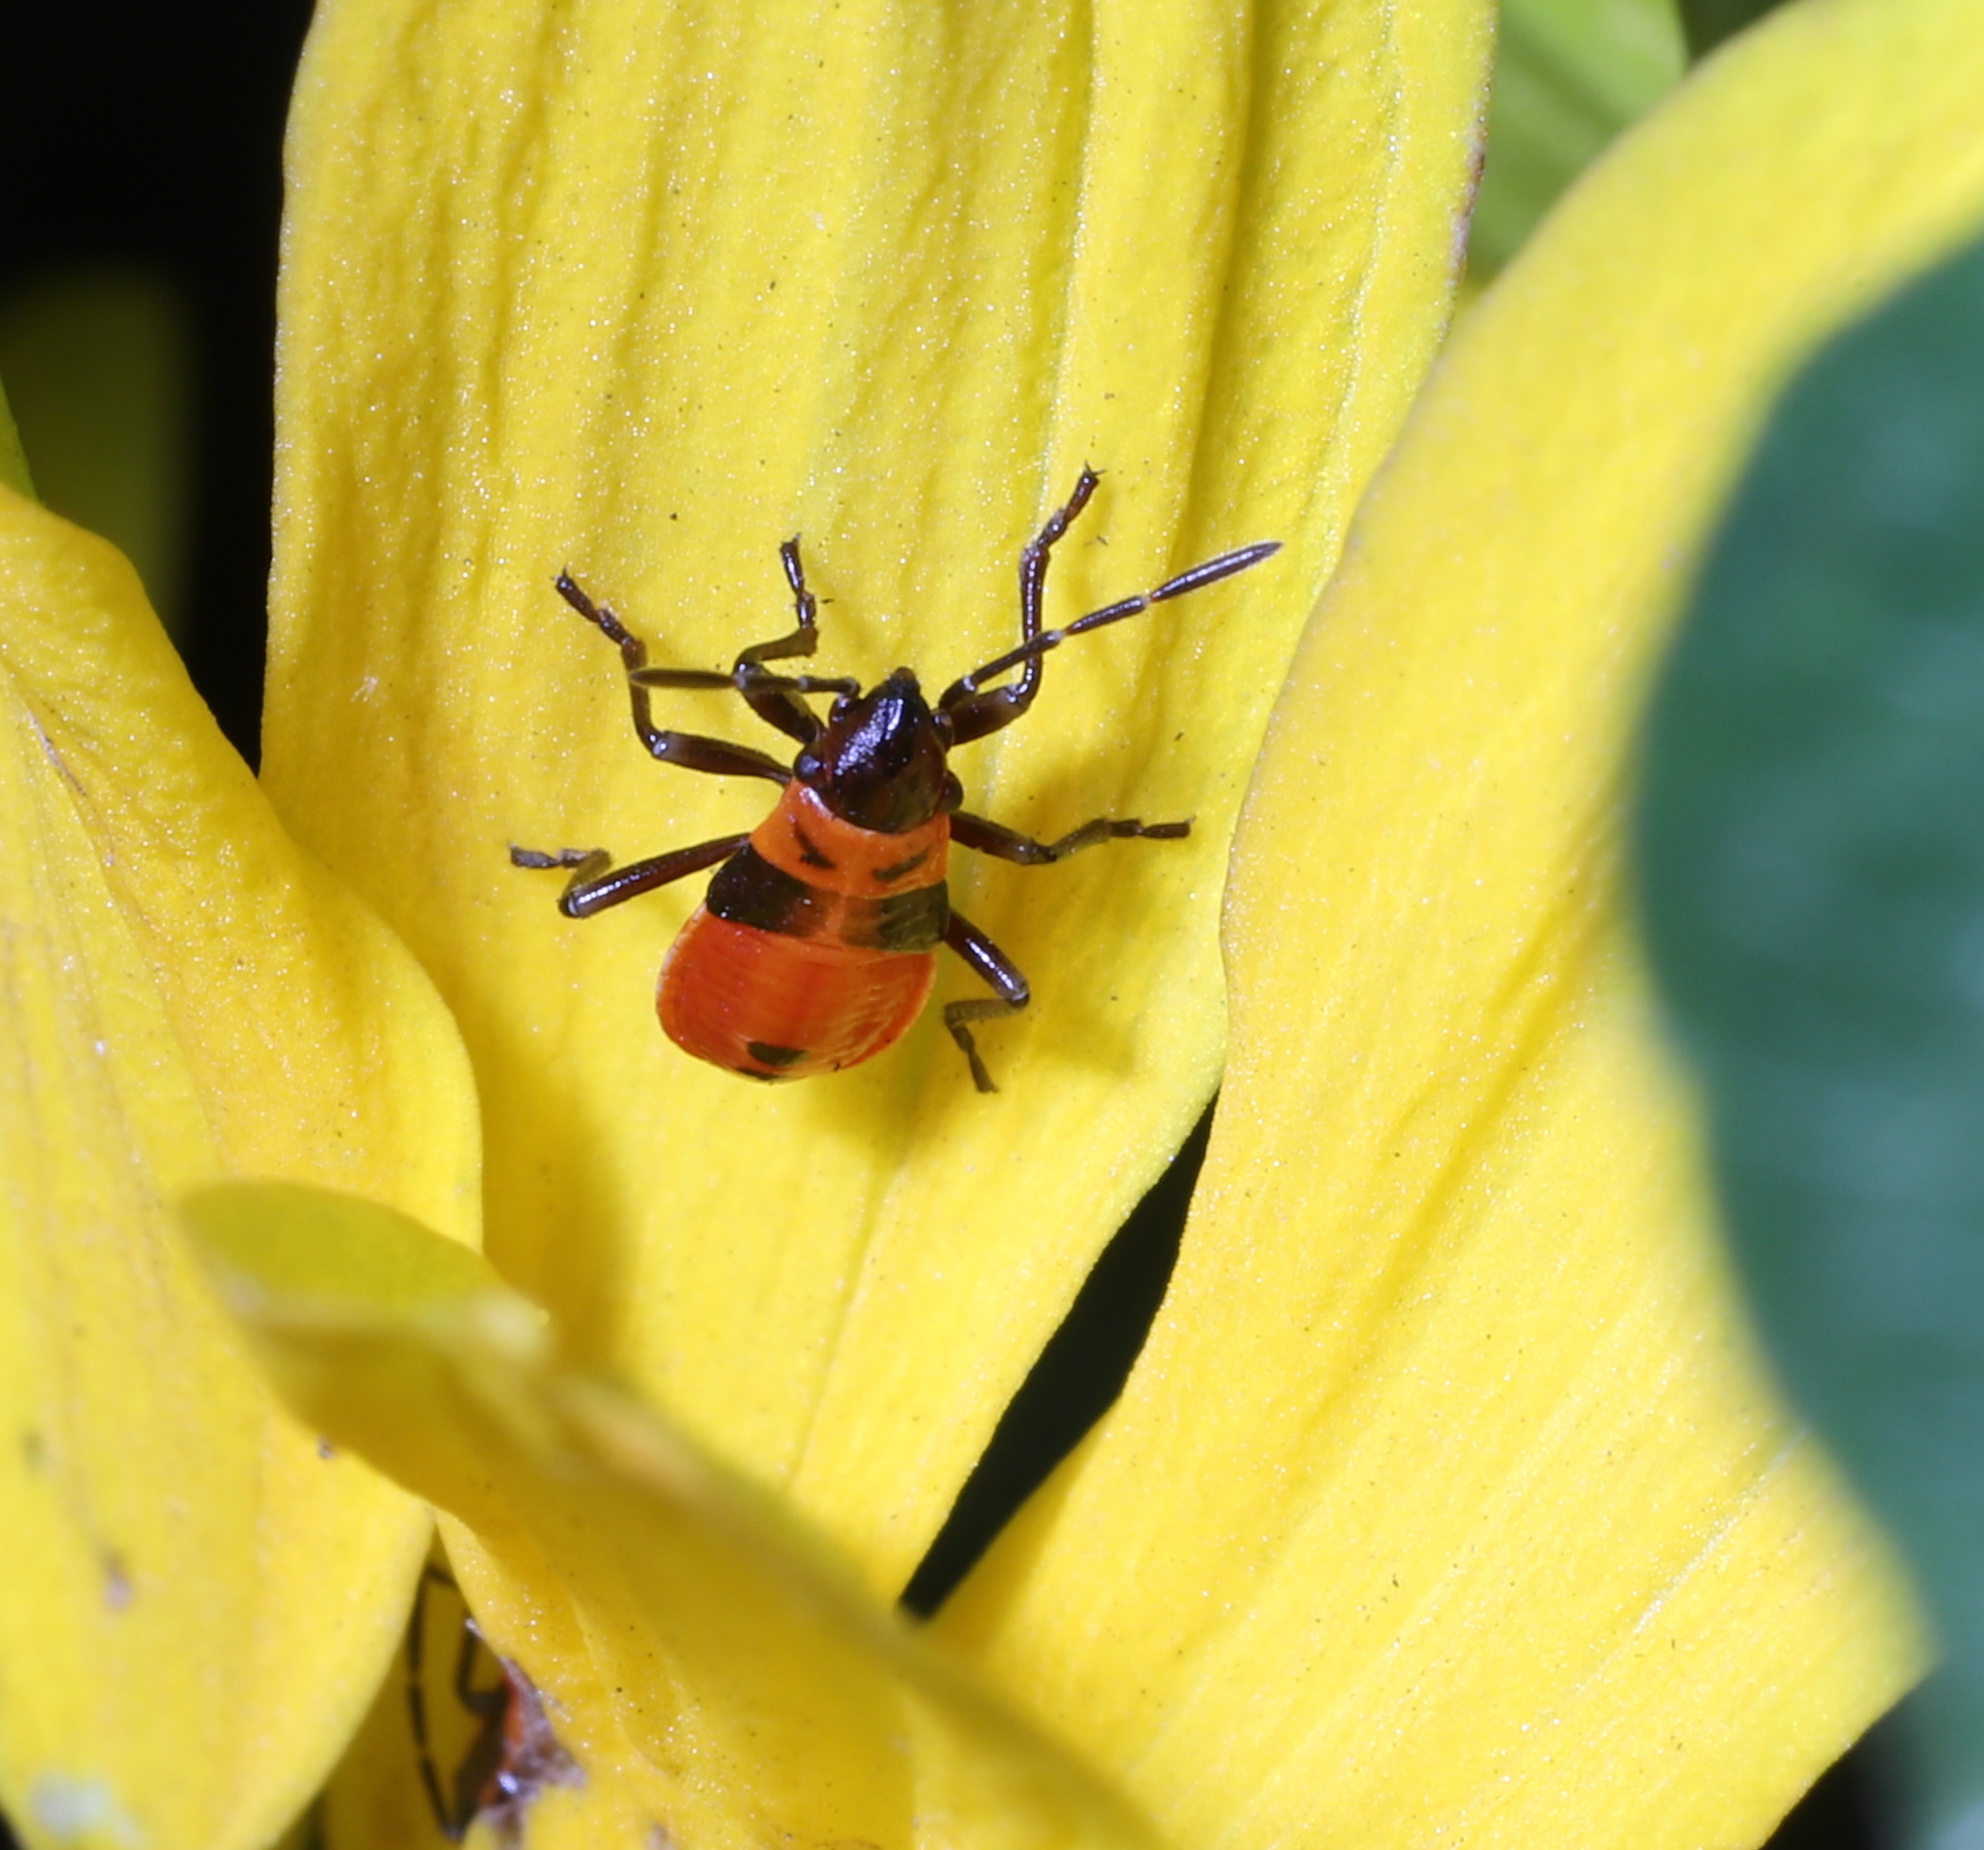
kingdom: Animalia
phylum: Arthropoda
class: Insecta
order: Hemiptera
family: Lygaeidae
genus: Lygaeus
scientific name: Lygaeus turcicus
